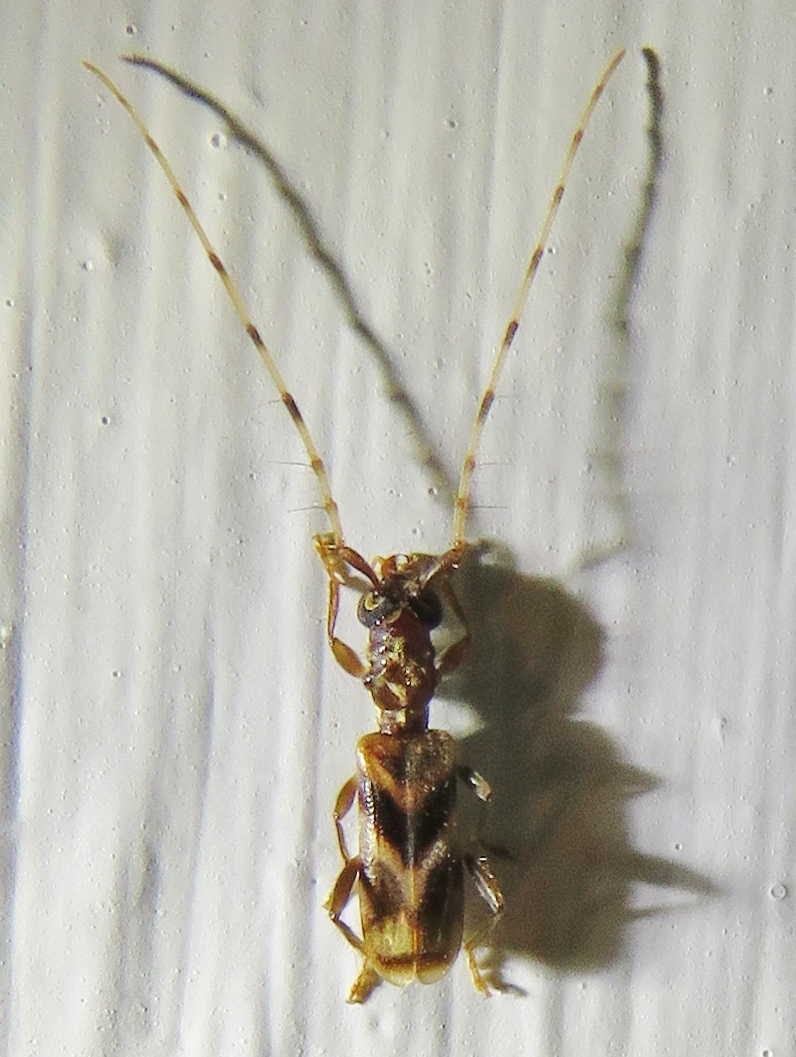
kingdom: Animalia
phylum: Arthropoda
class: Insecta
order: Coleoptera
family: Cerambycidae
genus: Stenhomalus
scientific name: Stenhomalus taiwanus
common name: Taiwan slender longhorned beetle
